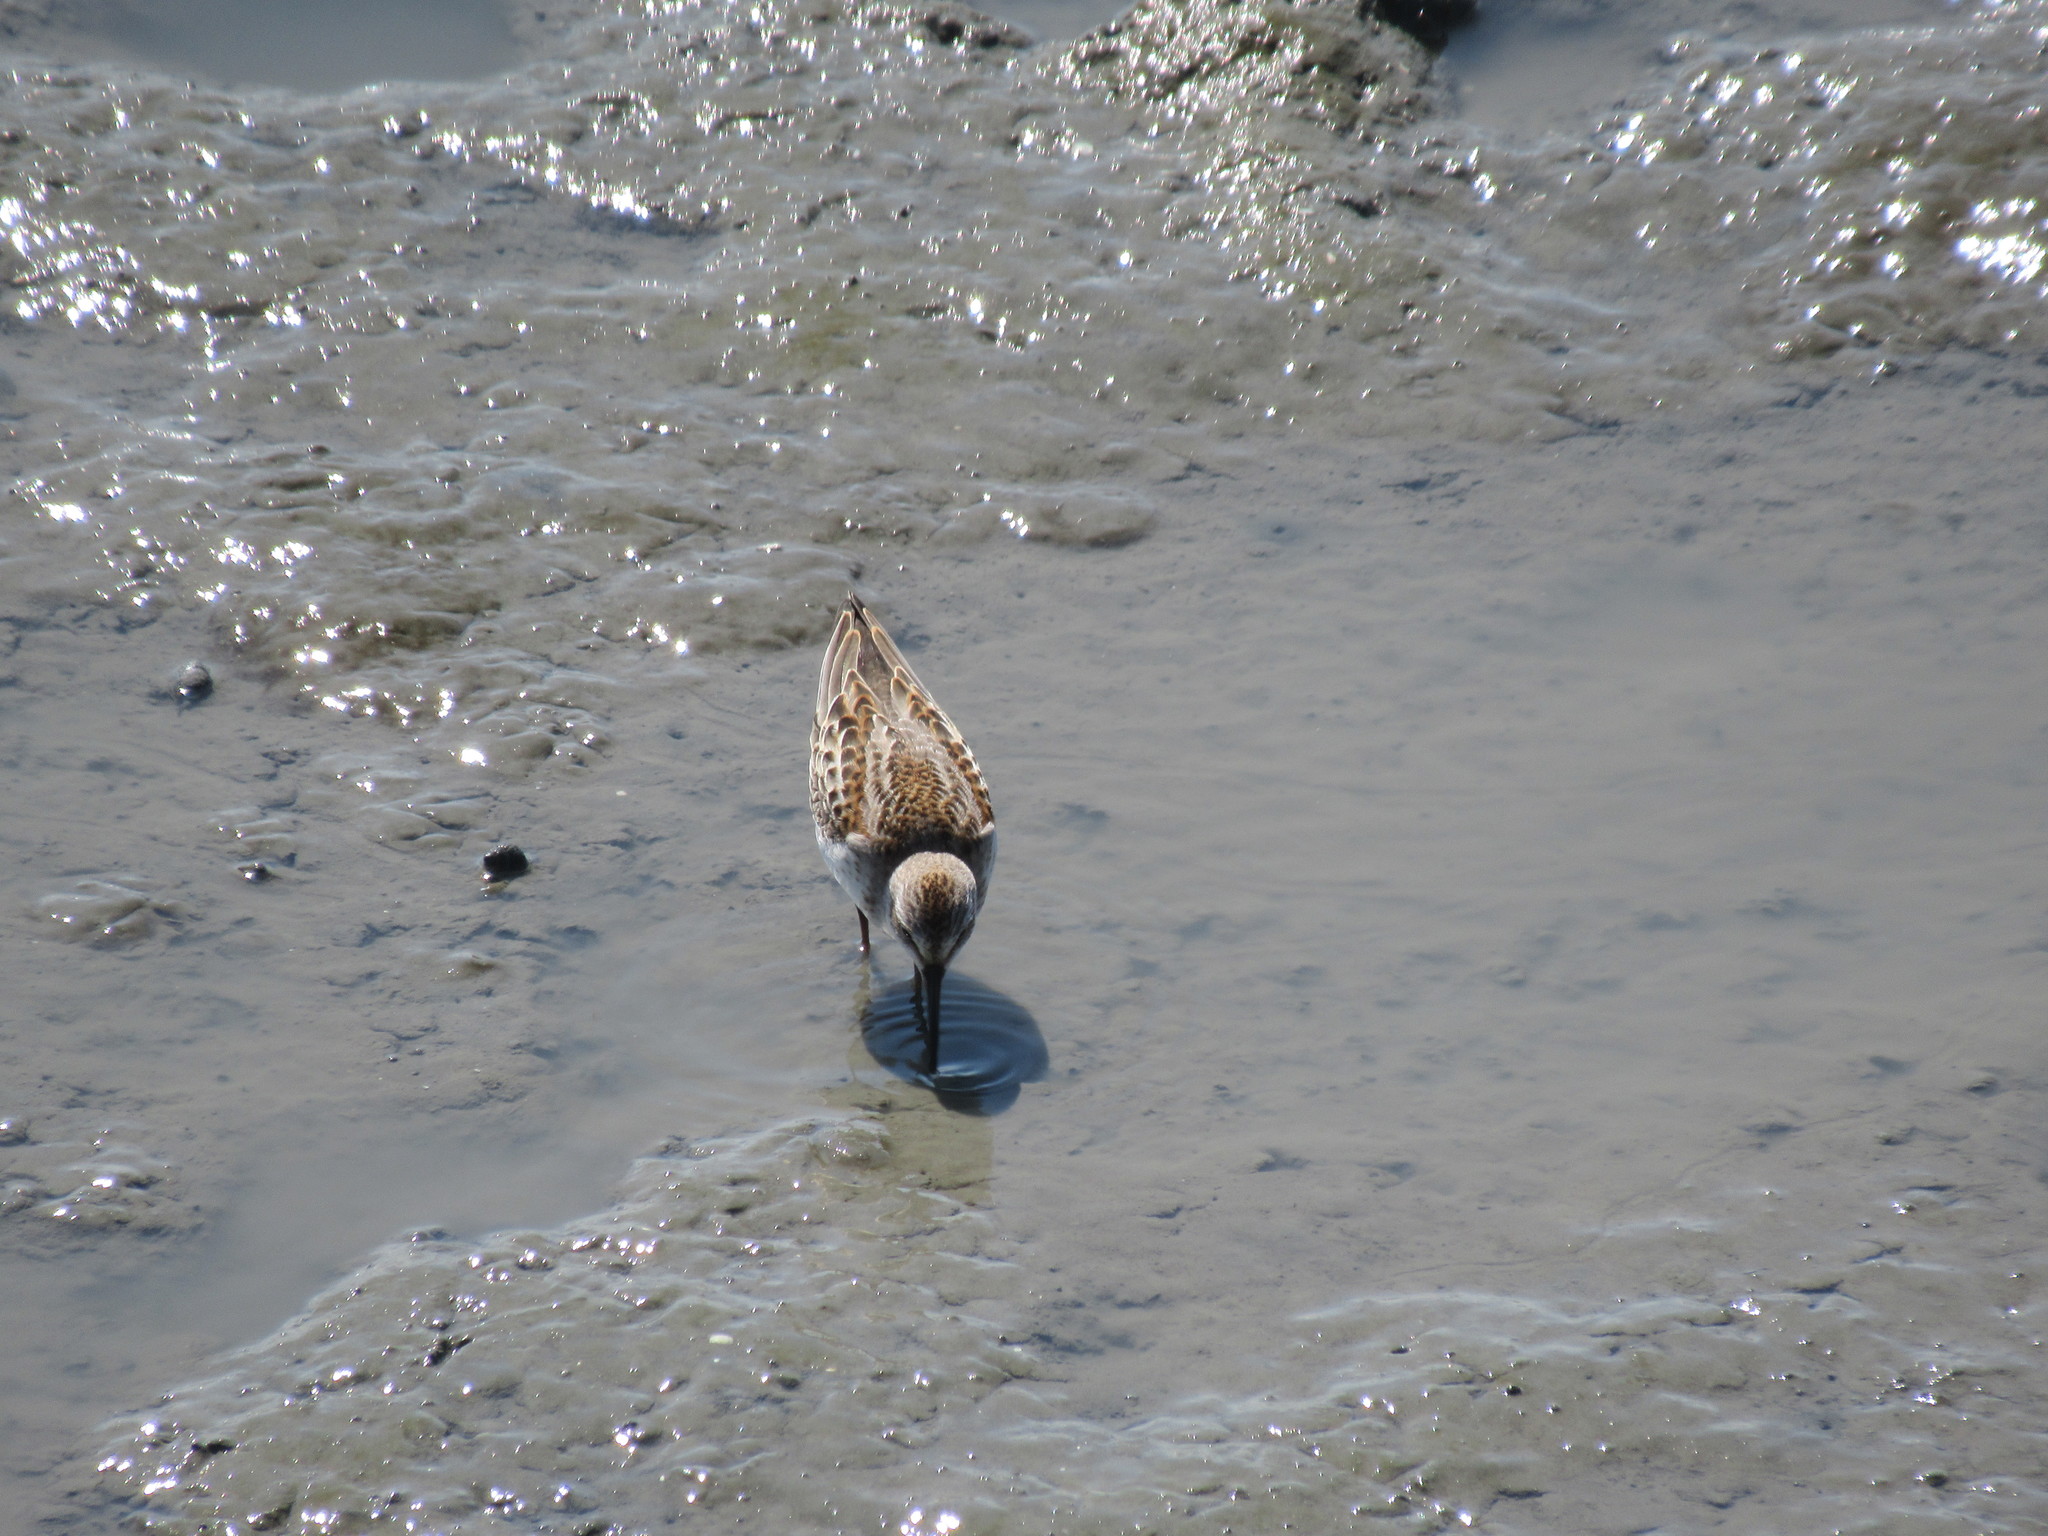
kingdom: Animalia
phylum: Chordata
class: Aves
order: Charadriiformes
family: Scolopacidae
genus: Calidris
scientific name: Calidris mauri
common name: Western sandpiper
